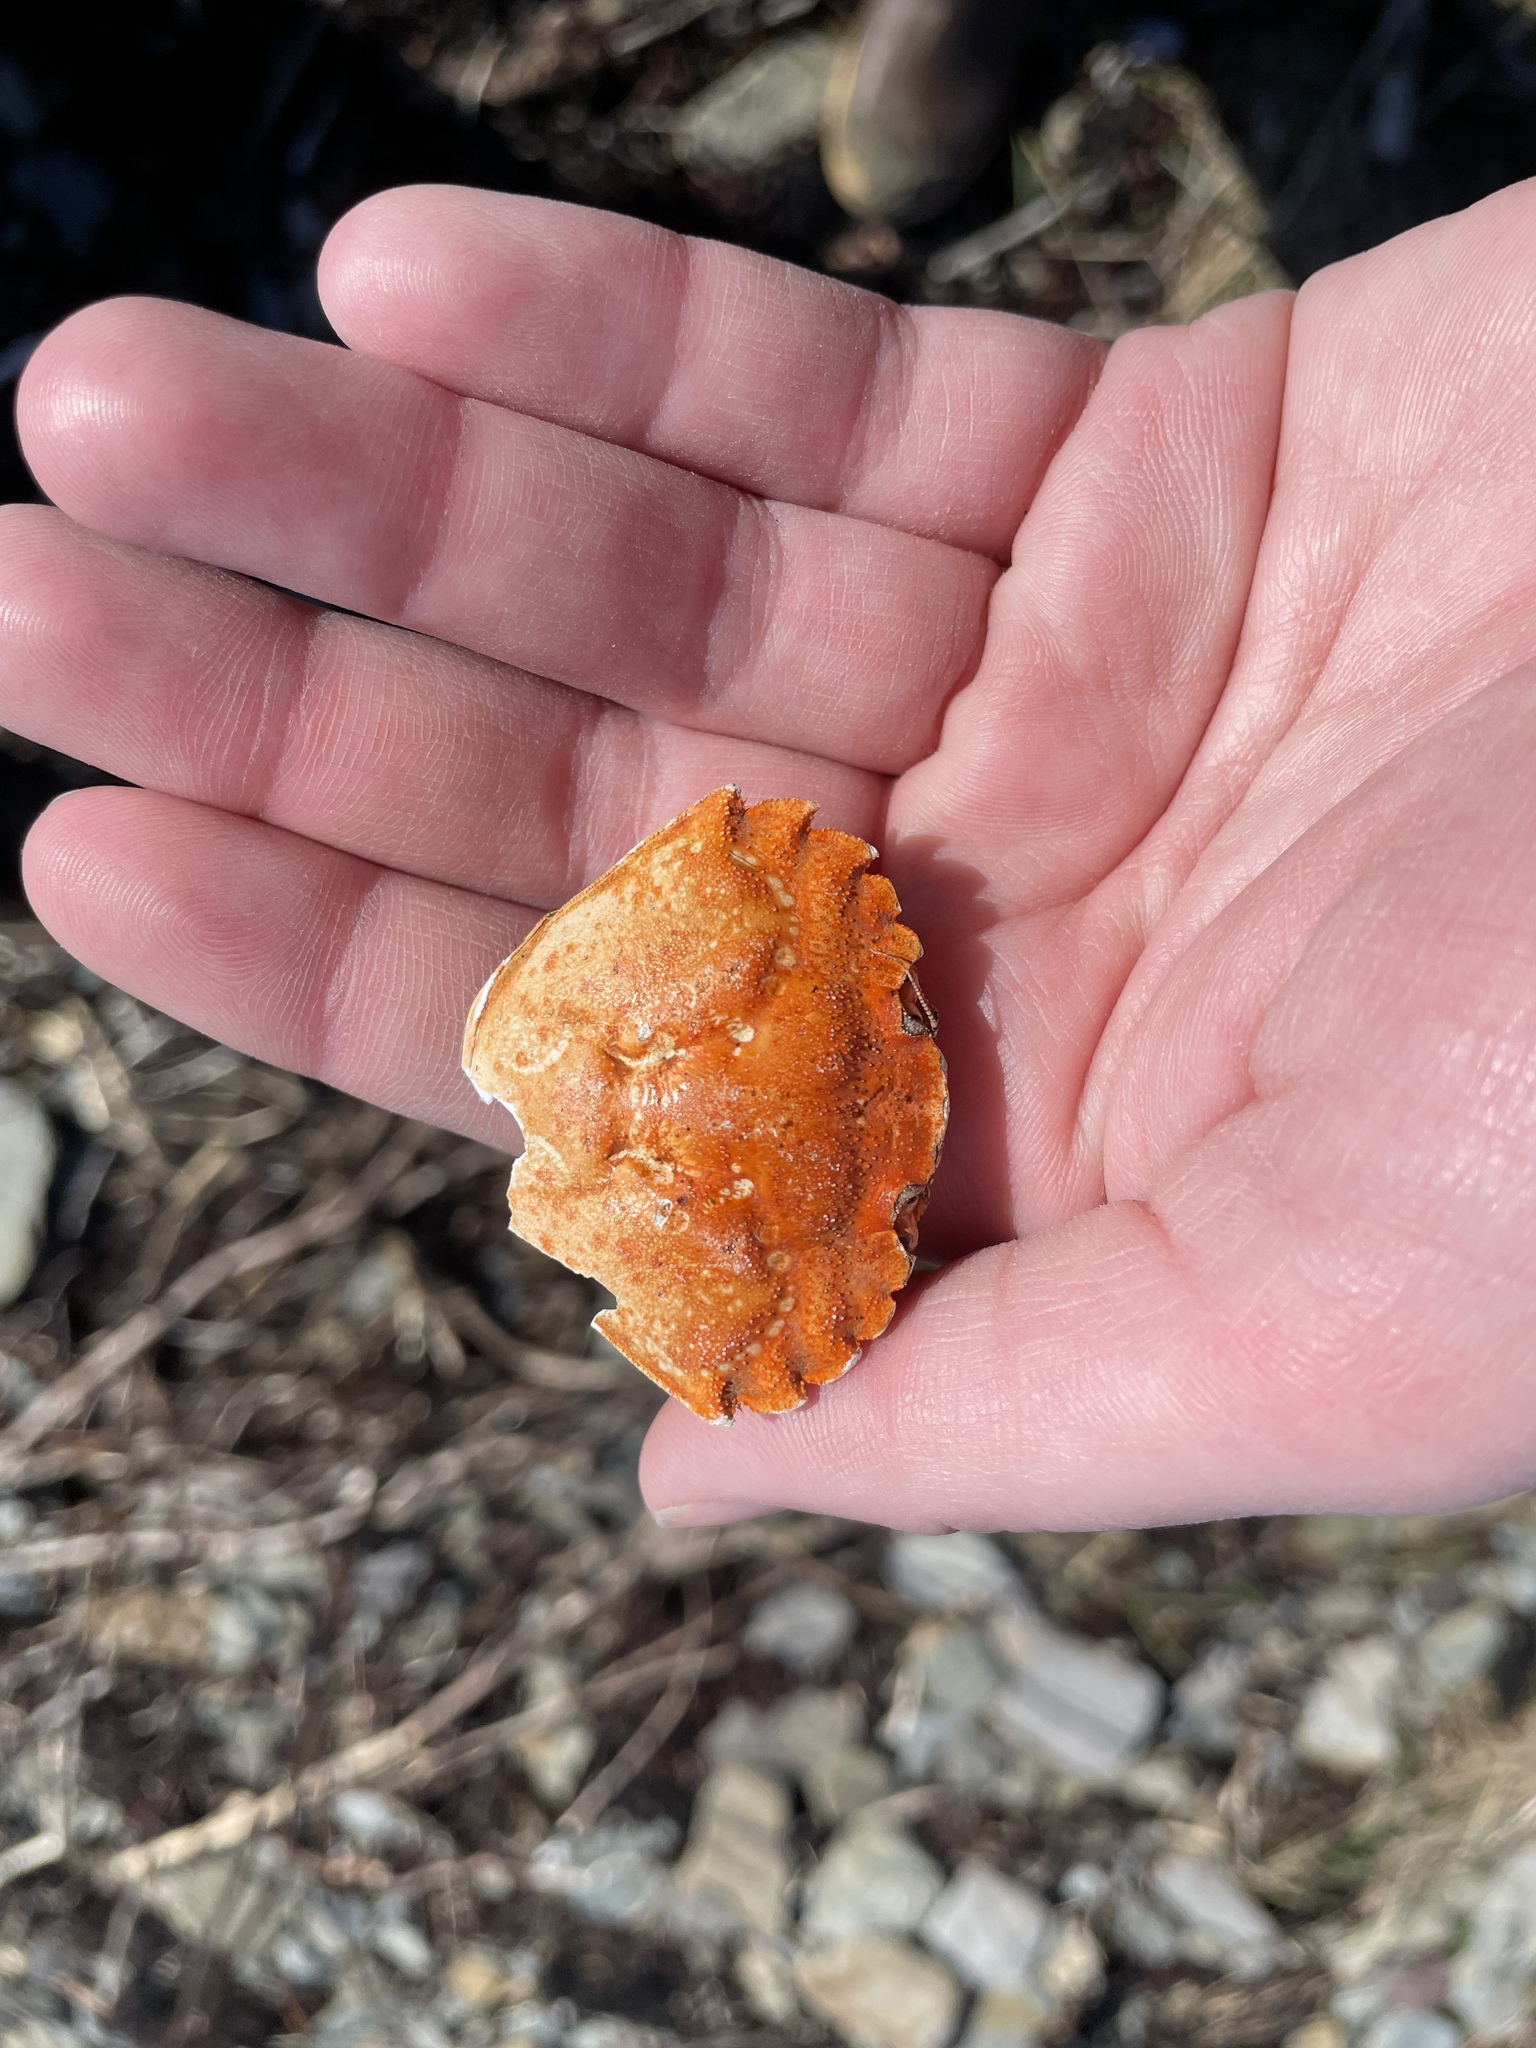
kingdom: Animalia
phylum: Arthropoda
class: Malacostraca
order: Decapoda
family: Carcinidae
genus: Carcinus
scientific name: Carcinus maenas
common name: European green crab
